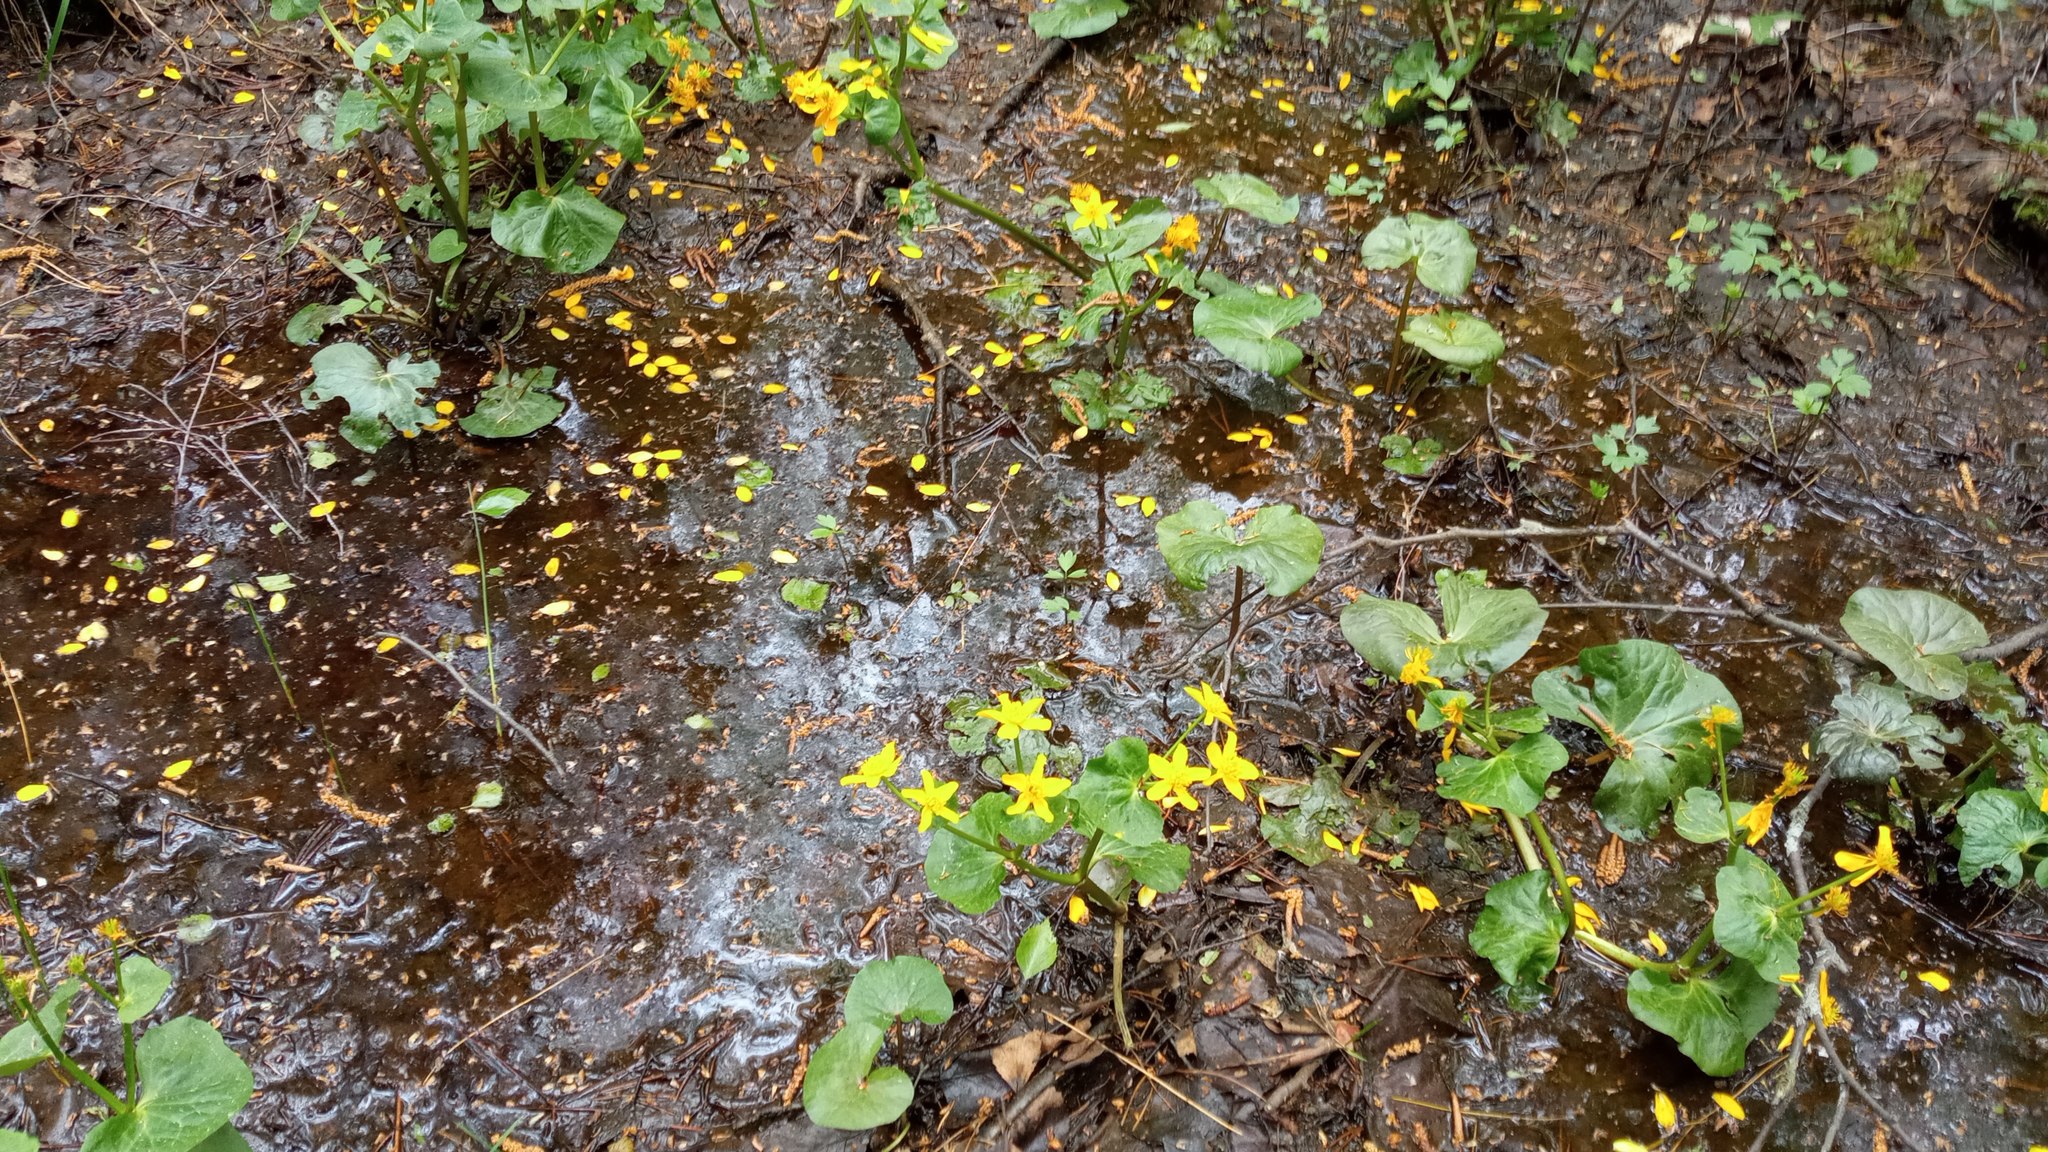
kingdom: Plantae
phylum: Tracheophyta
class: Magnoliopsida
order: Ranunculales
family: Ranunculaceae
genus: Caltha
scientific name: Caltha palustris
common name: Marsh marigold
